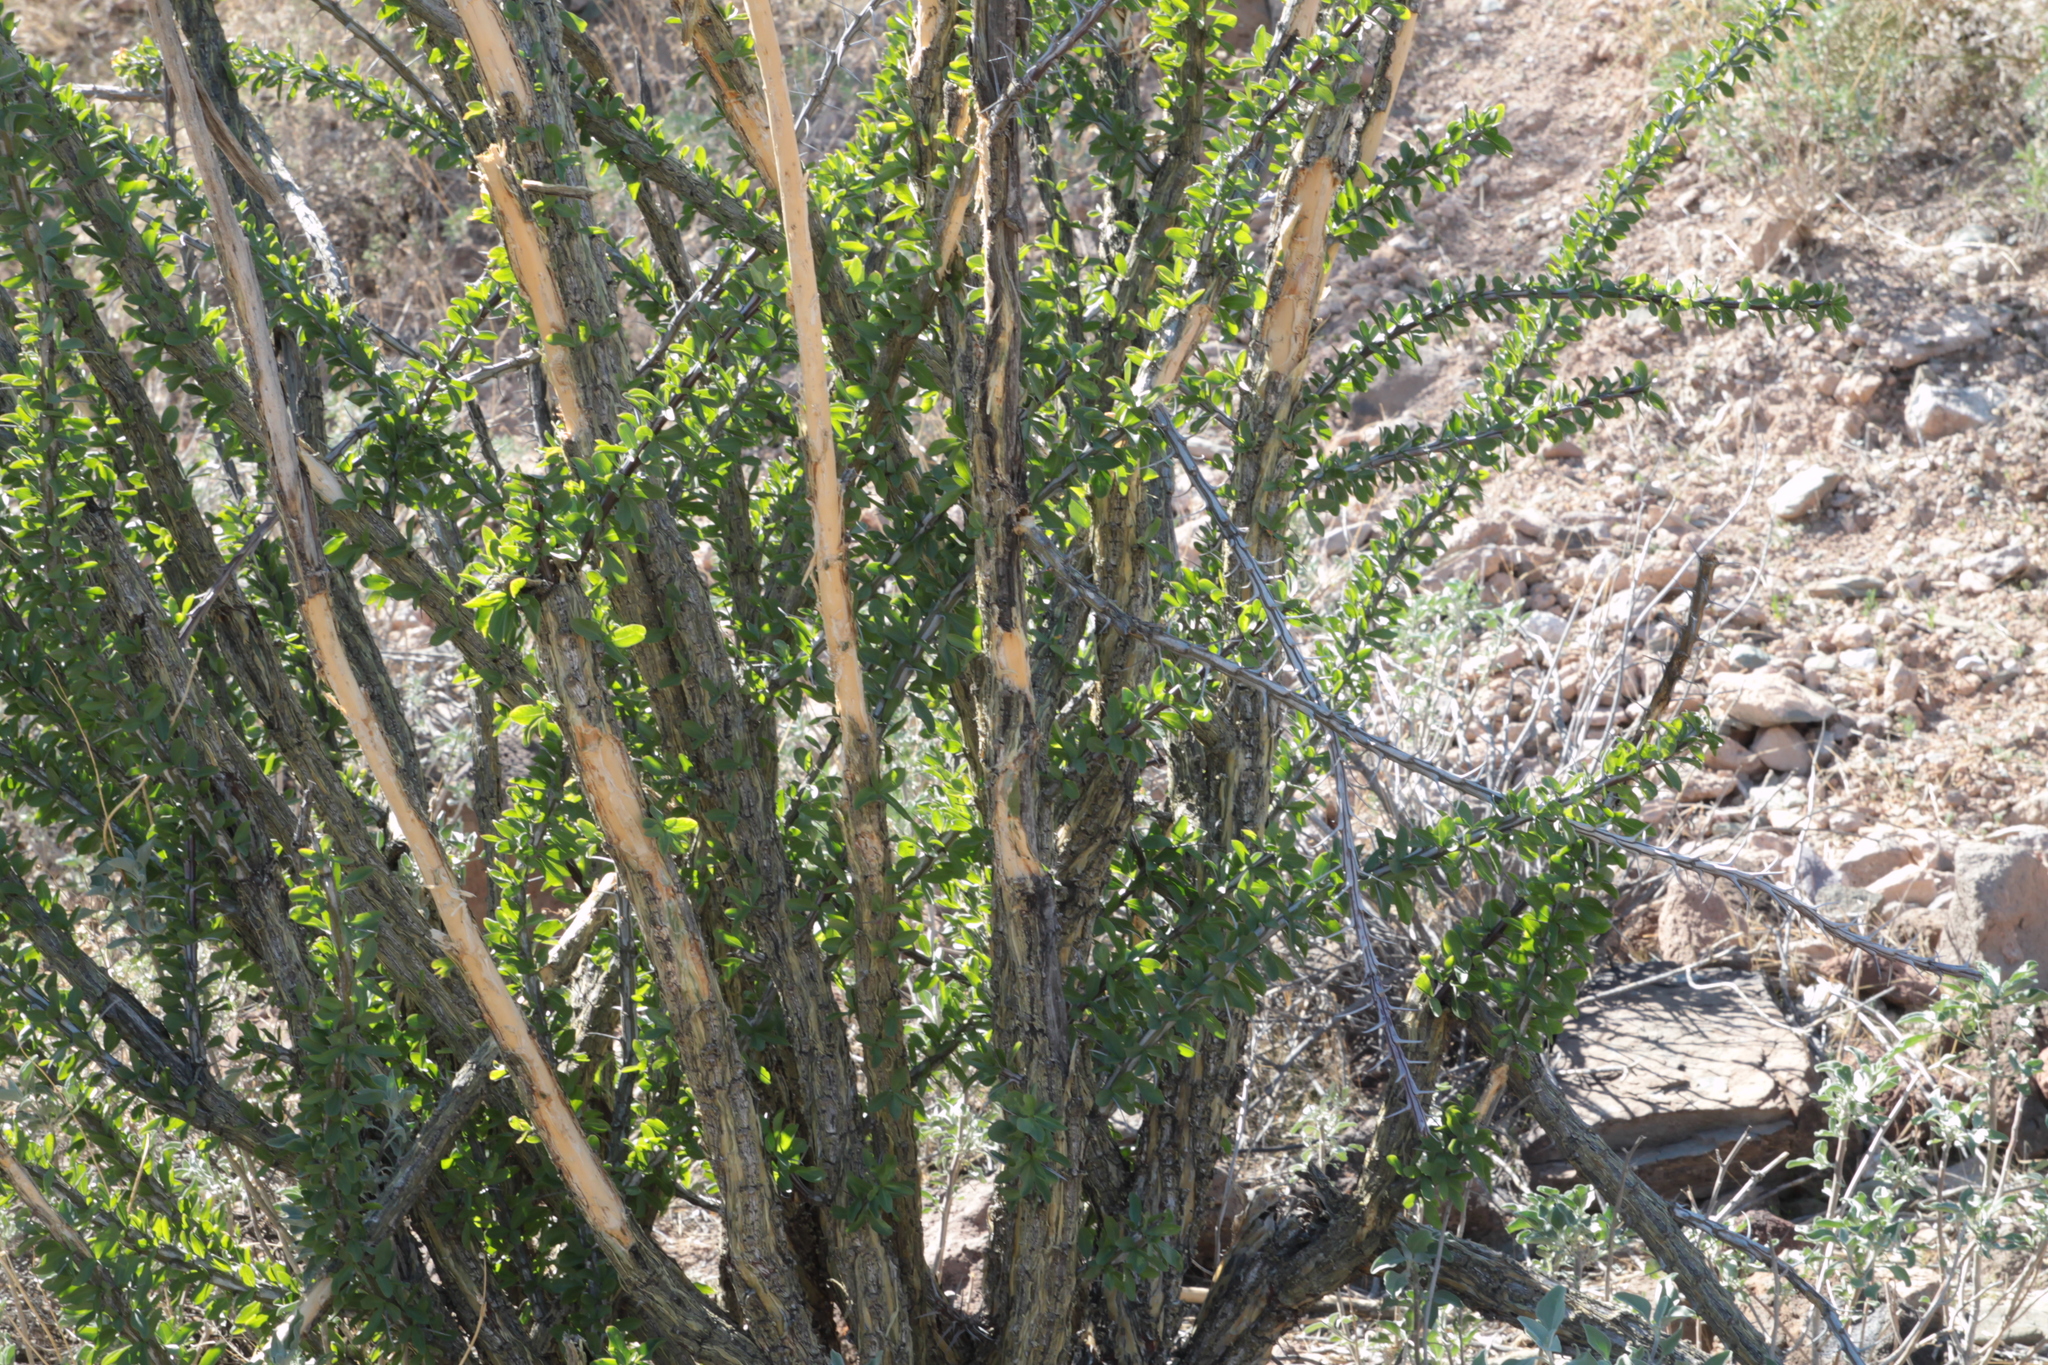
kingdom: Plantae
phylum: Tracheophyta
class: Magnoliopsida
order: Ericales
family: Fouquieriaceae
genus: Fouquieria
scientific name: Fouquieria splendens
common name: Vine-cactus
